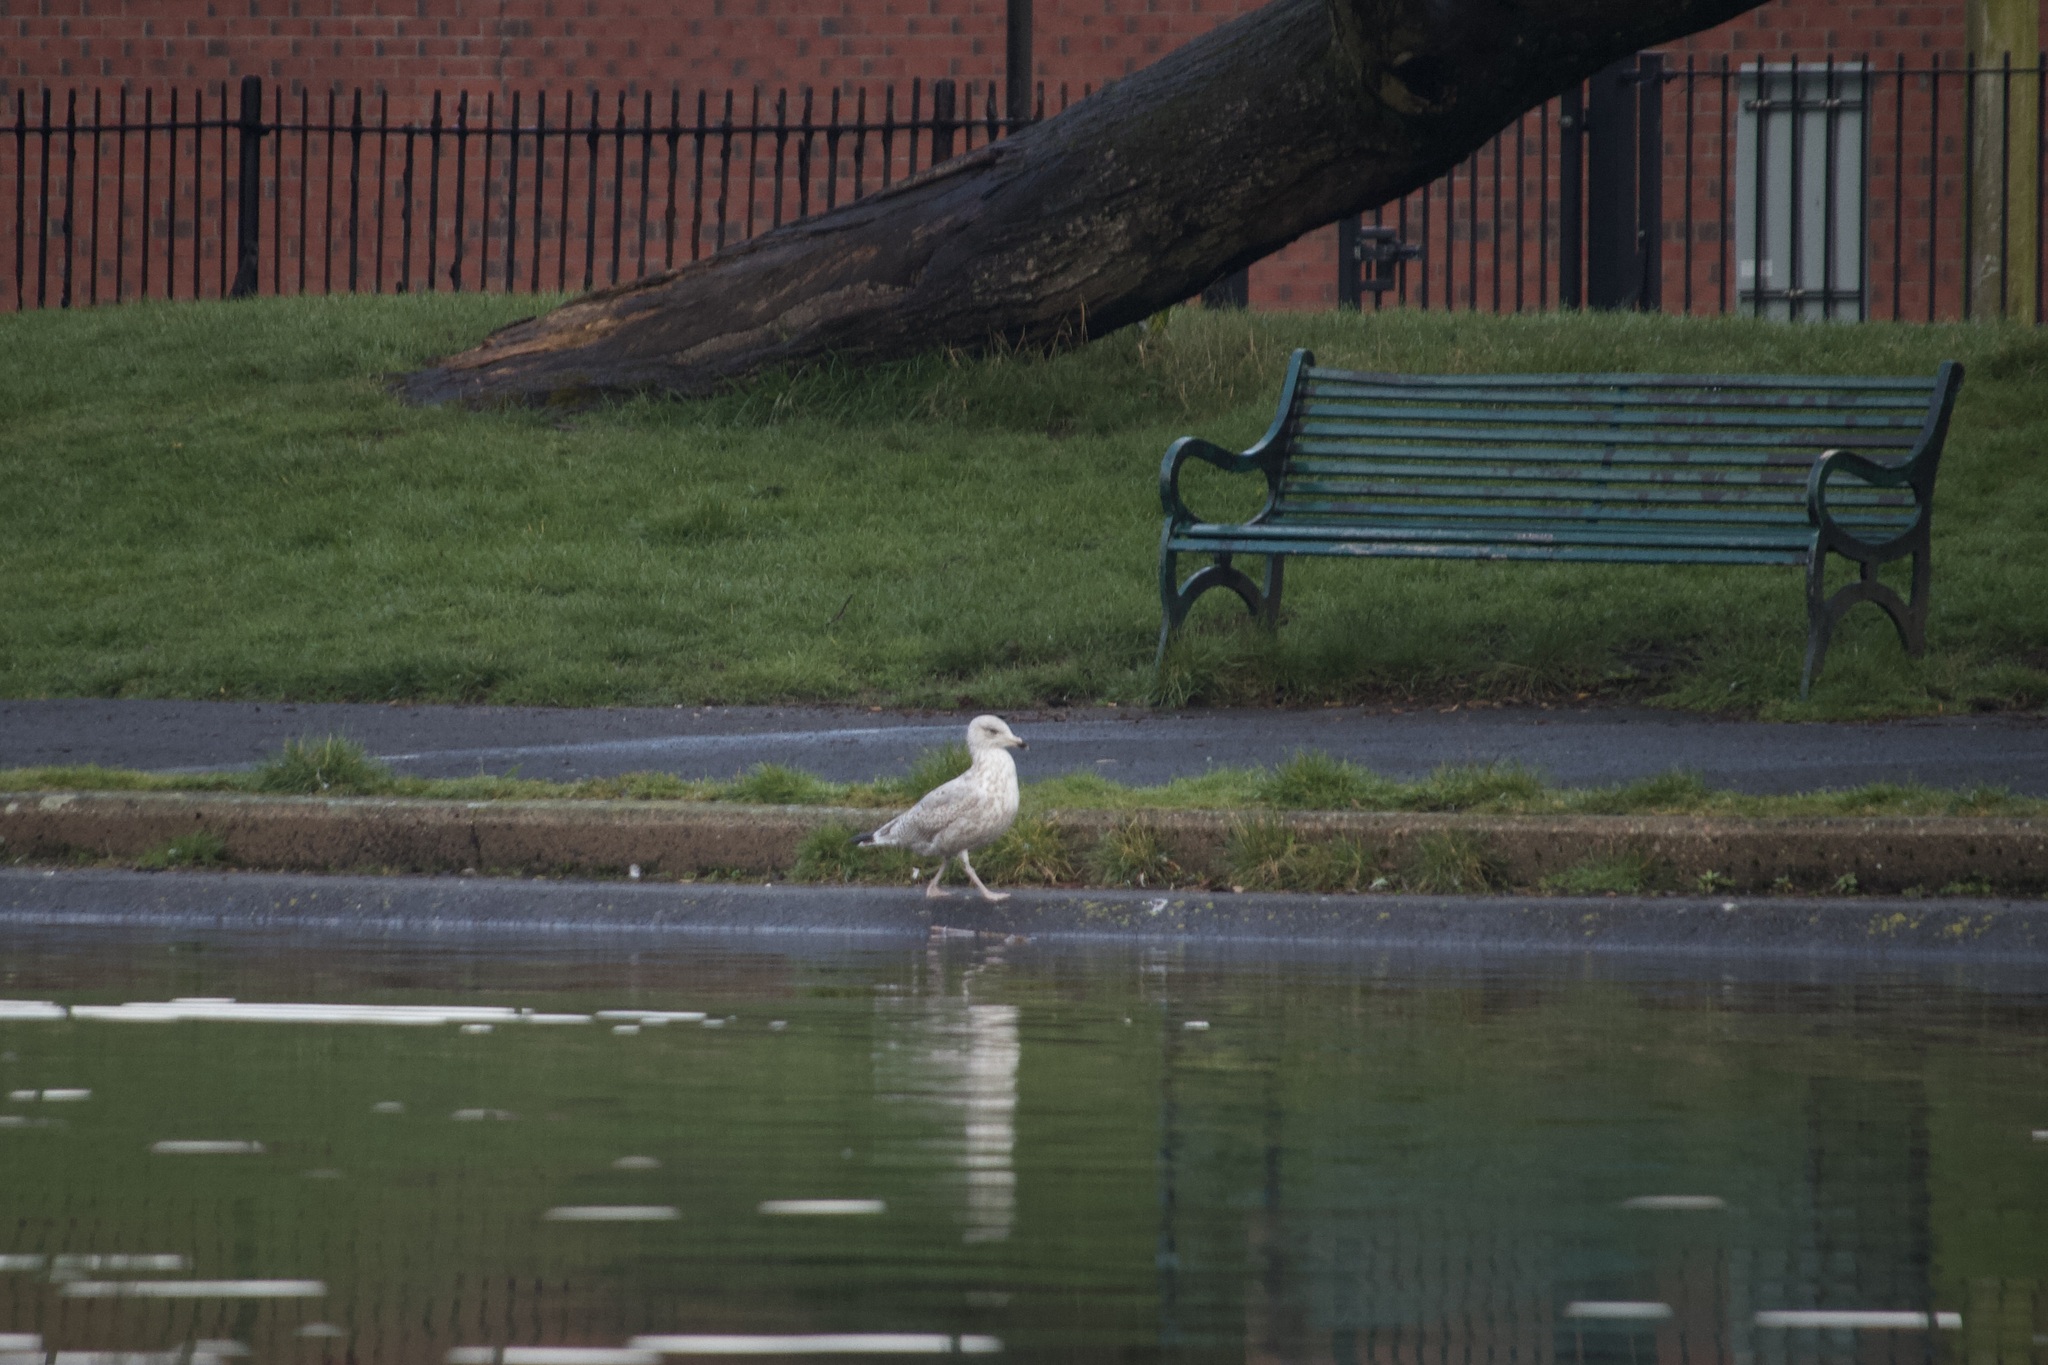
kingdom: Animalia
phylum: Chordata
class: Aves
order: Charadriiformes
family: Laridae
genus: Larus
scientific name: Larus argentatus
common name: Herring gull
